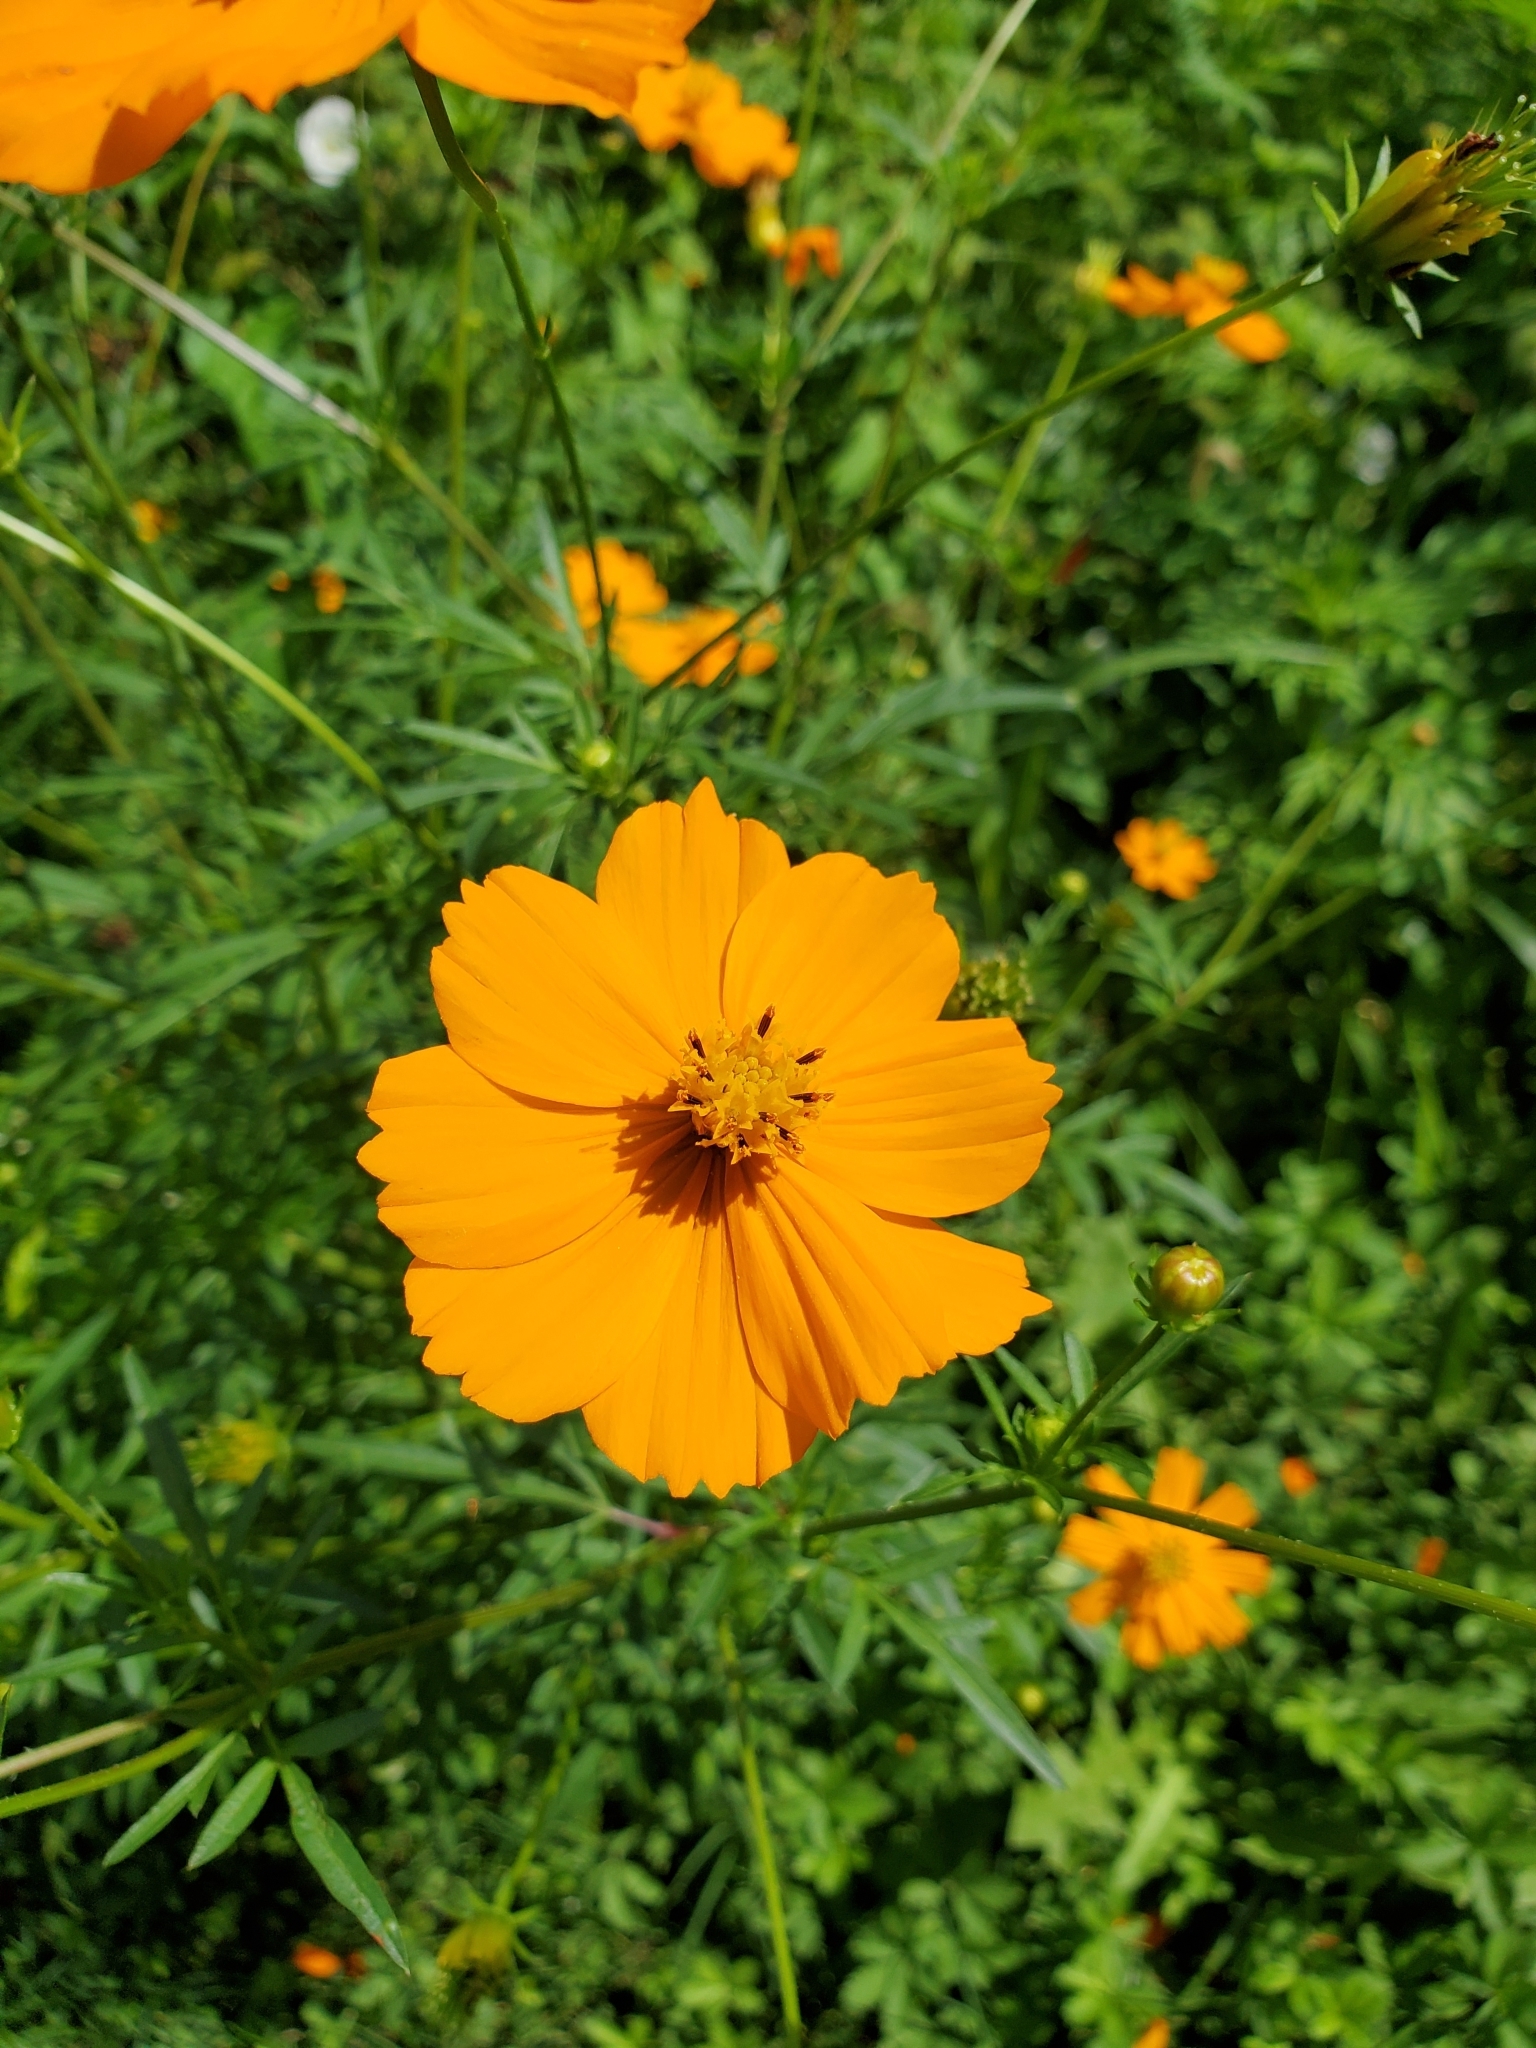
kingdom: Plantae
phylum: Tracheophyta
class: Magnoliopsida
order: Asterales
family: Asteraceae
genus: Cosmos
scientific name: Cosmos sulphureus
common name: Sulphur cosmos
